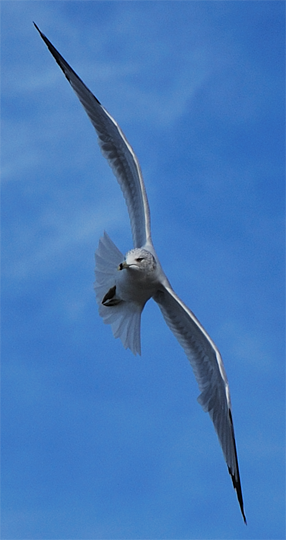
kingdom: Animalia
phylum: Chordata
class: Aves
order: Charadriiformes
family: Laridae
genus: Larus
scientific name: Larus delawarensis
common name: Ring-billed gull
